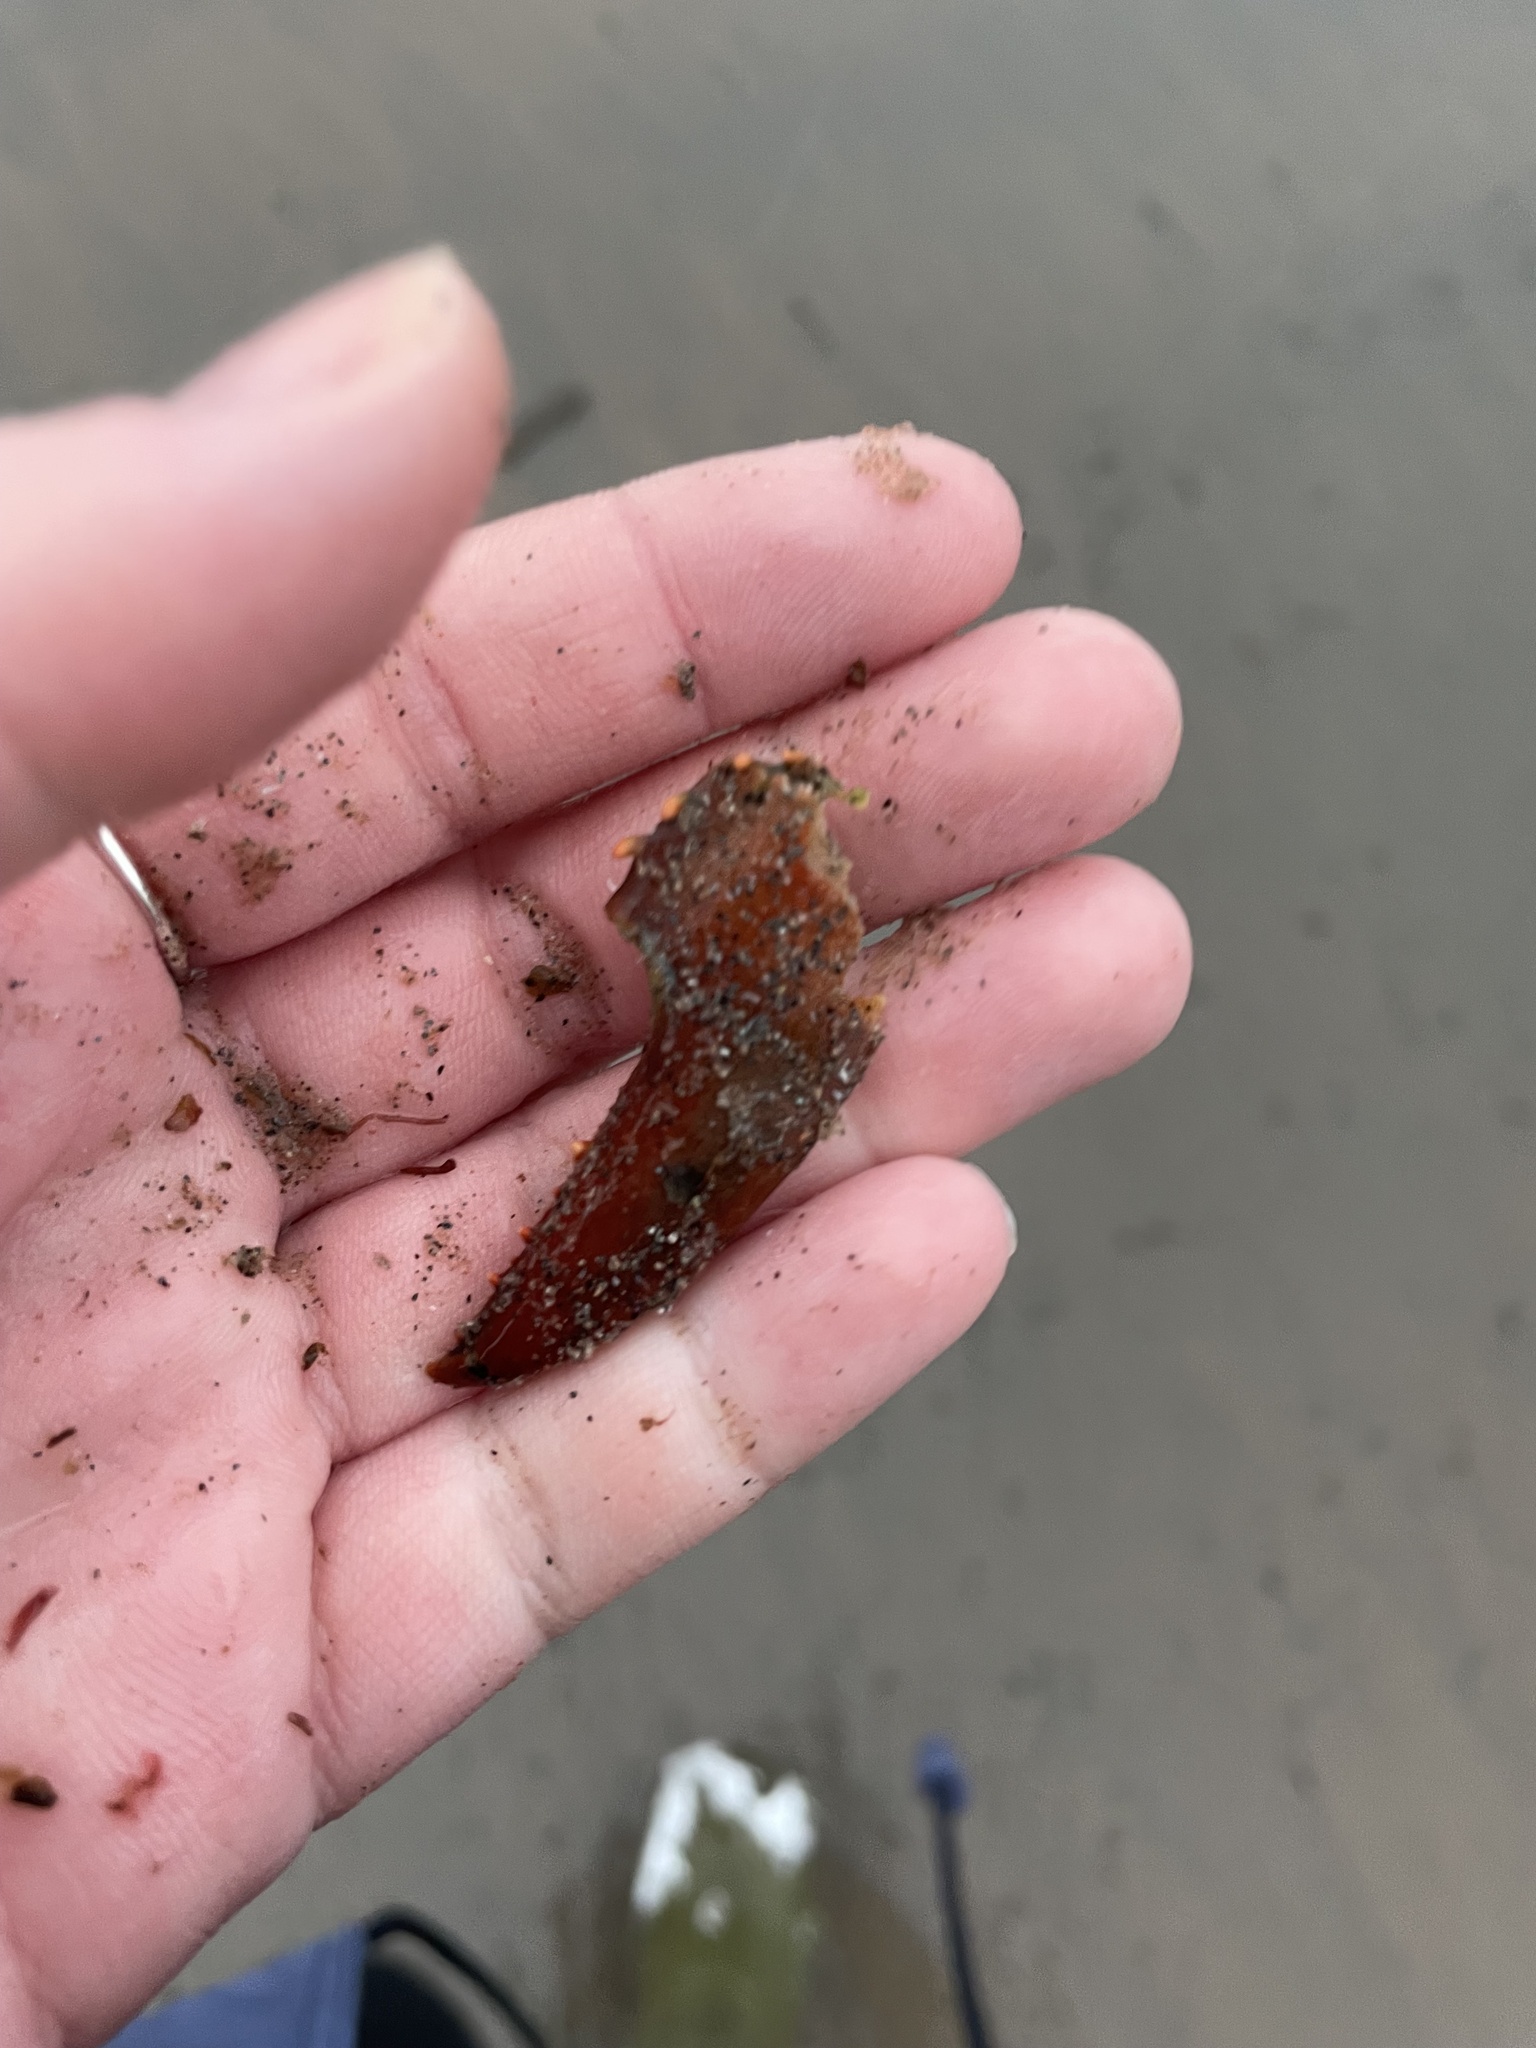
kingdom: Animalia
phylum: Arthropoda
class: Malacostraca
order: Decapoda
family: Nephropidae
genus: Homarus
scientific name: Homarus americanus
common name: American lobster
